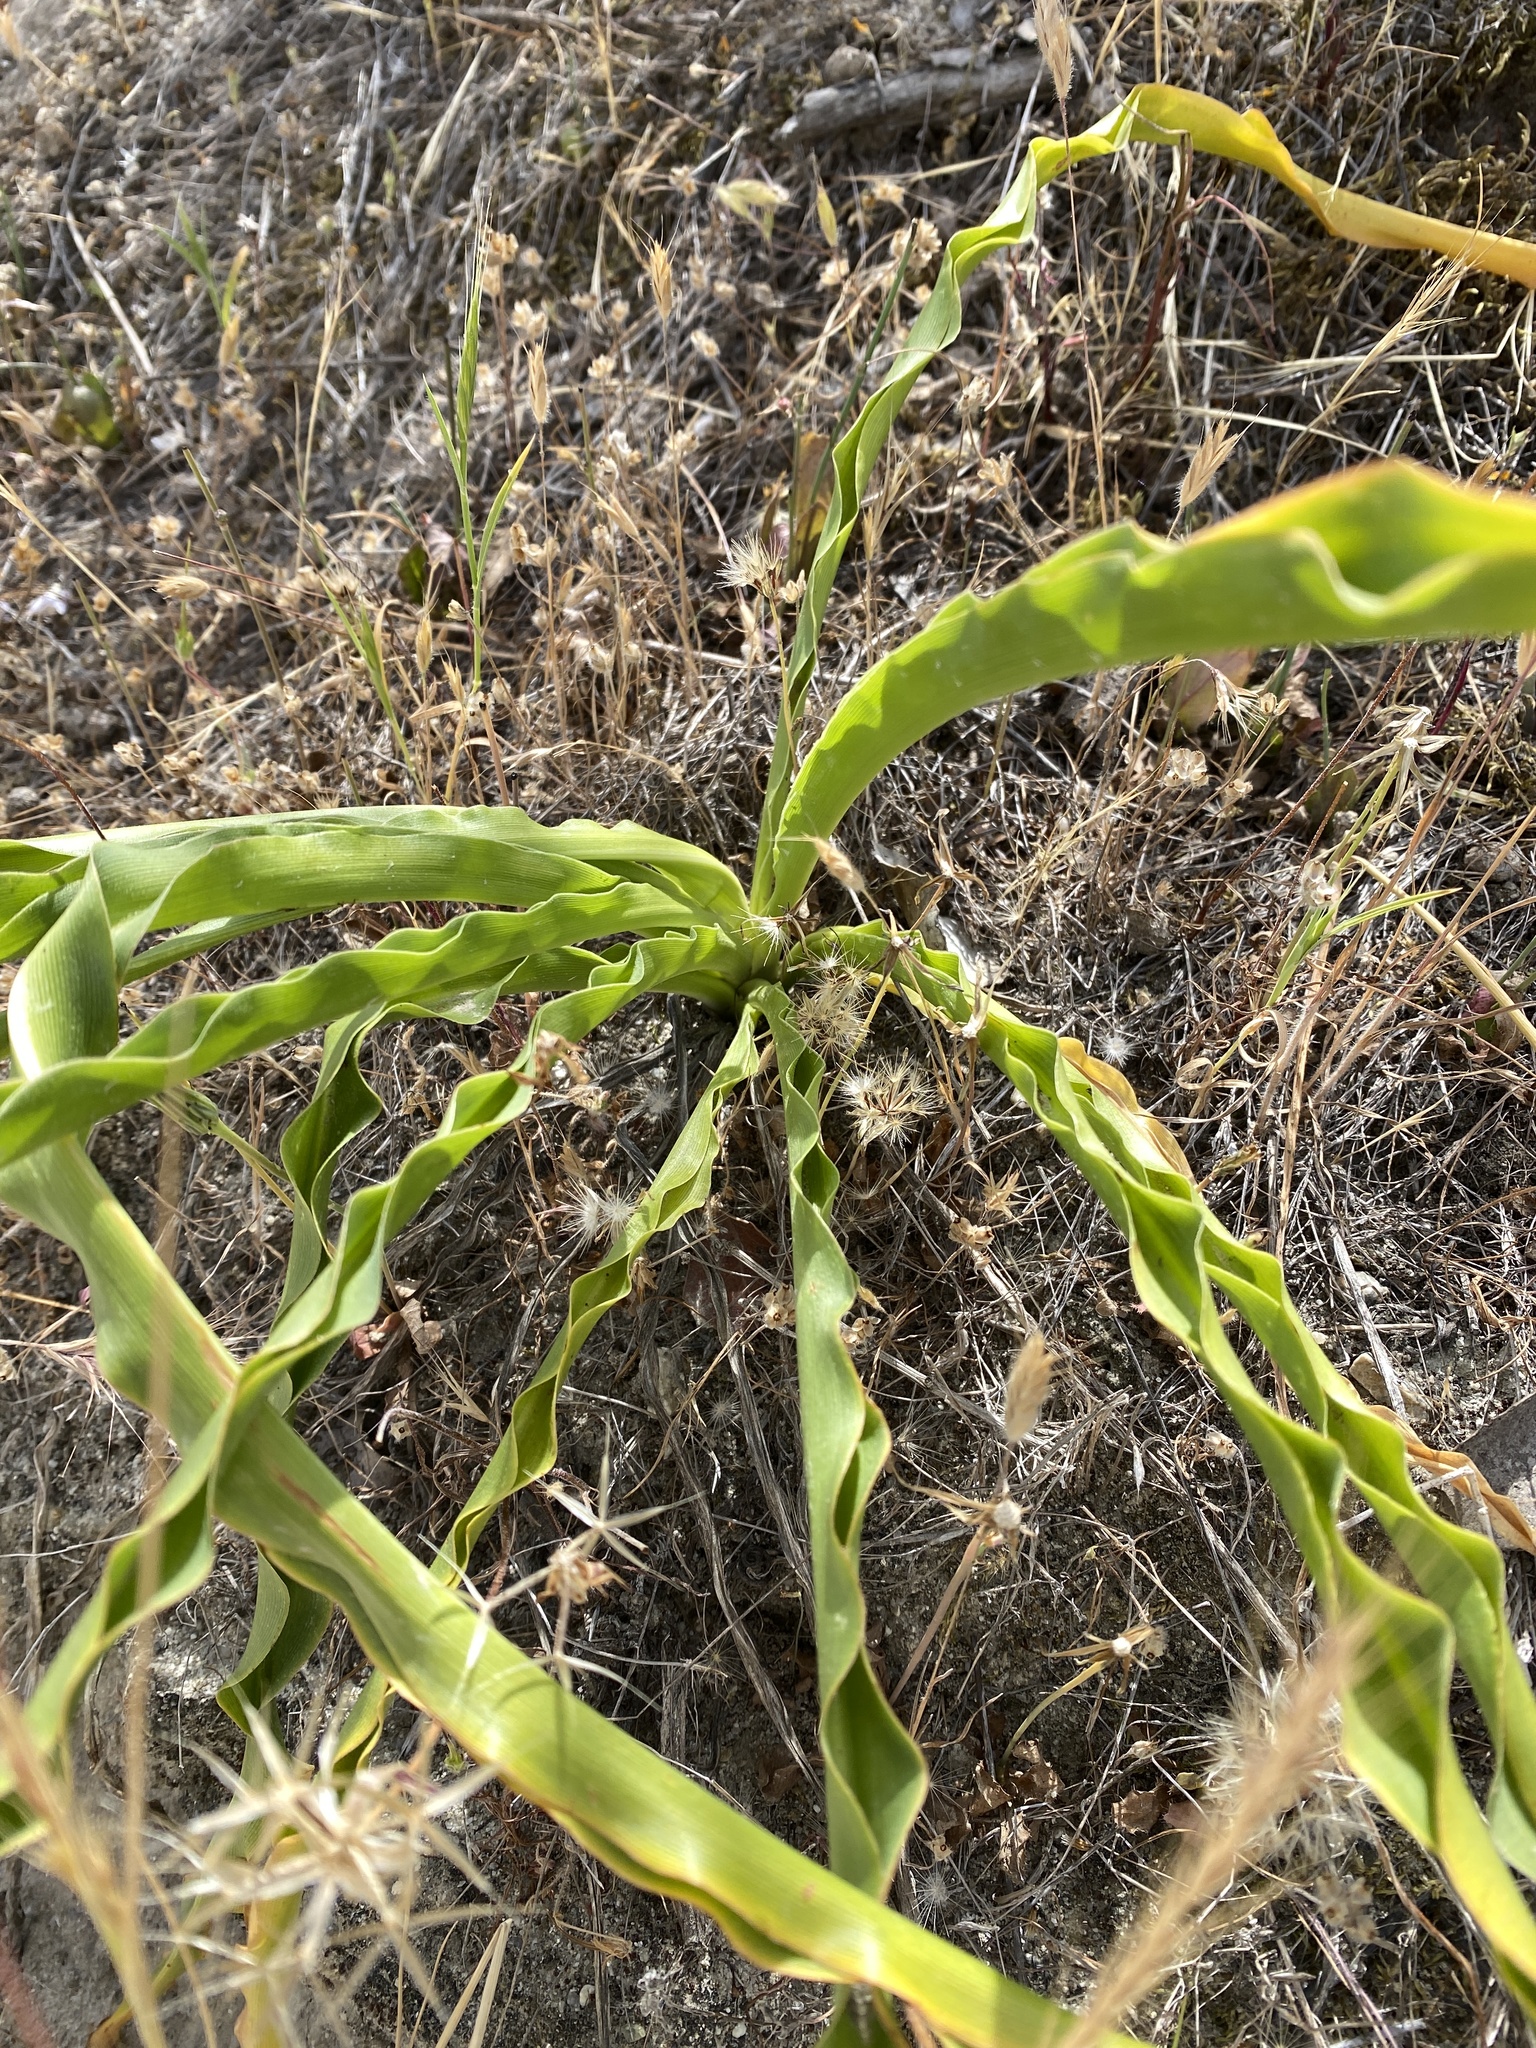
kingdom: Plantae
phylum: Tracheophyta
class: Liliopsida
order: Asparagales
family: Asparagaceae
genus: Chlorogalum
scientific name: Chlorogalum pomeridianum
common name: Amole
